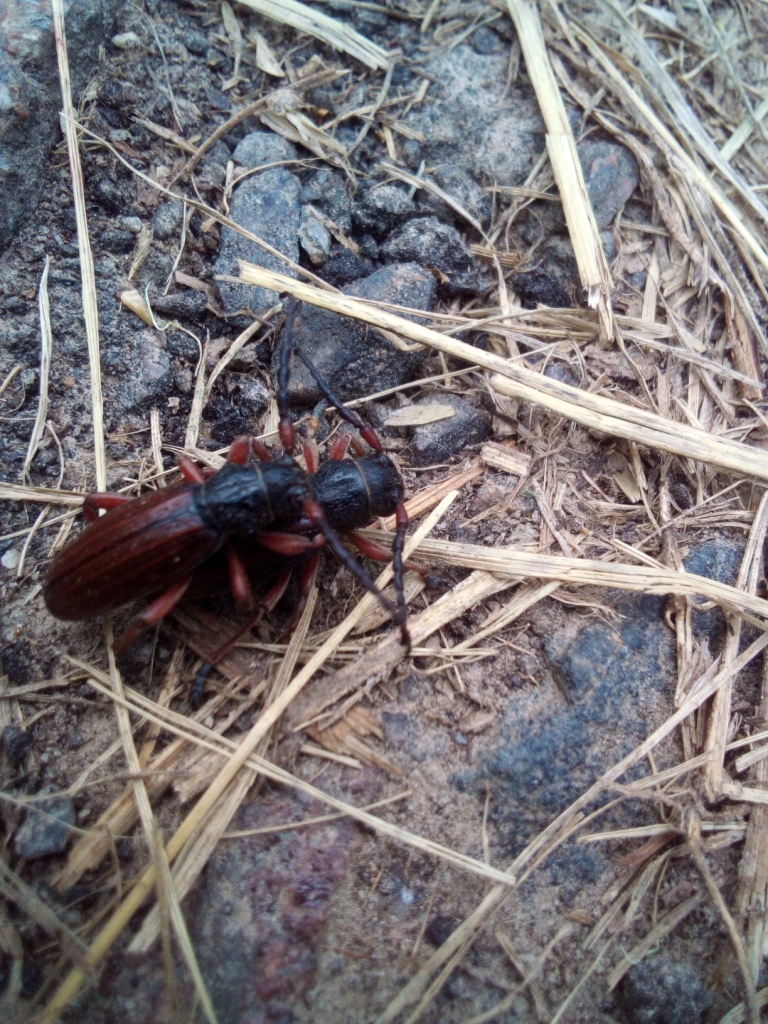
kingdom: Animalia
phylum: Arthropoda
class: Insecta
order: Coleoptera
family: Cerambycidae
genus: Dorcadion
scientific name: Dorcadion fulvum
